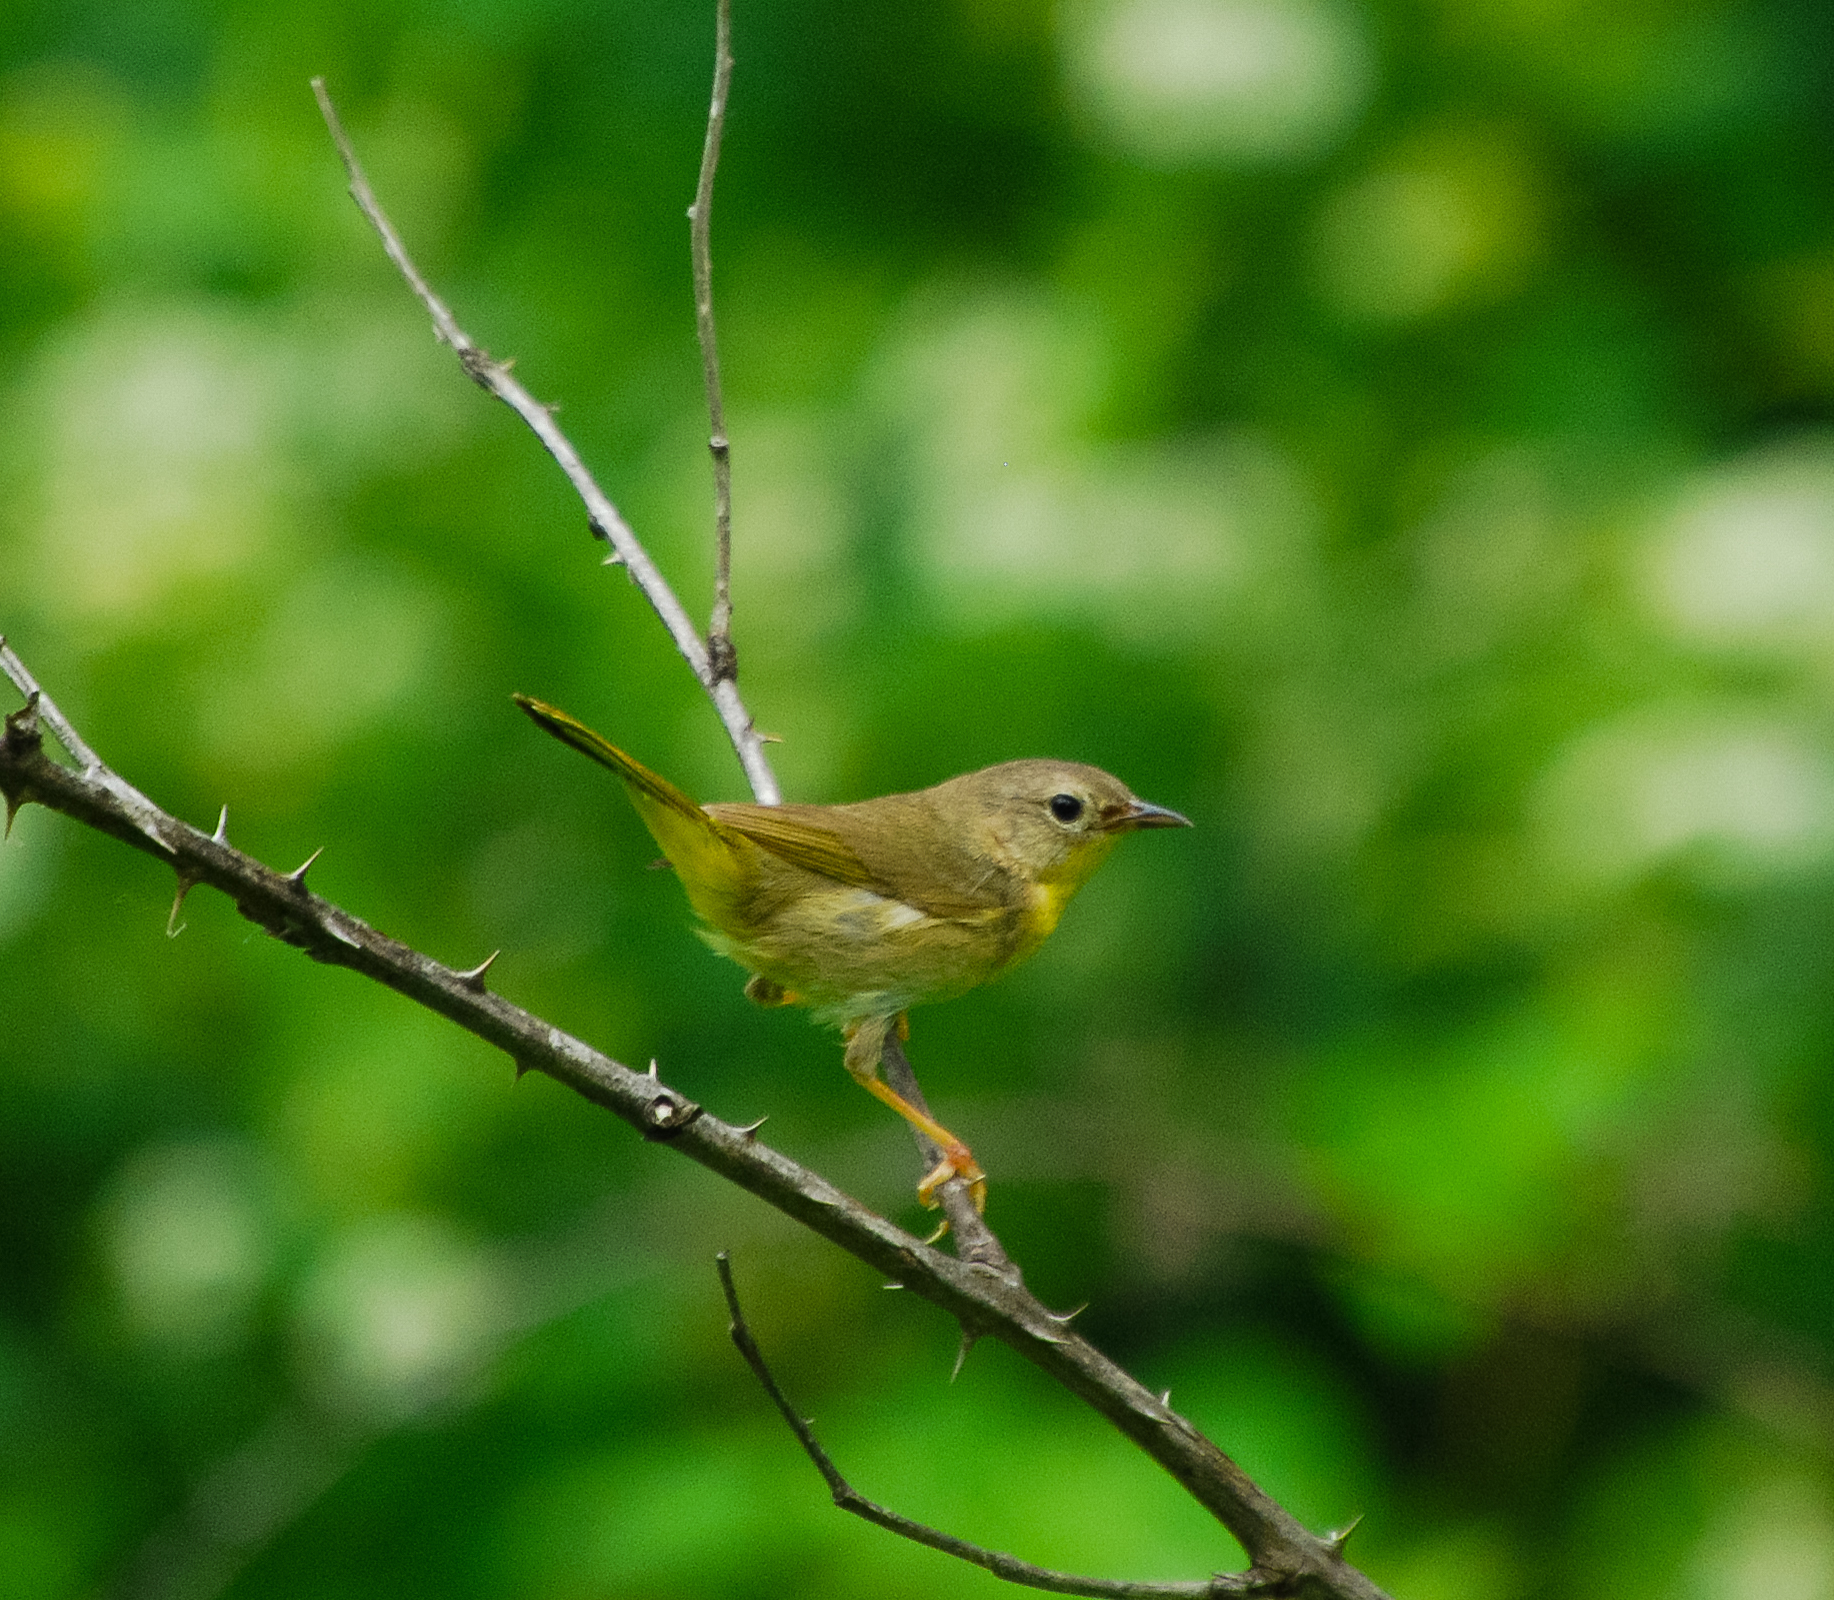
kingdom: Animalia
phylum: Chordata
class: Aves
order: Passeriformes
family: Parulidae
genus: Geothlypis
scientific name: Geothlypis trichas
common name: Common yellowthroat
